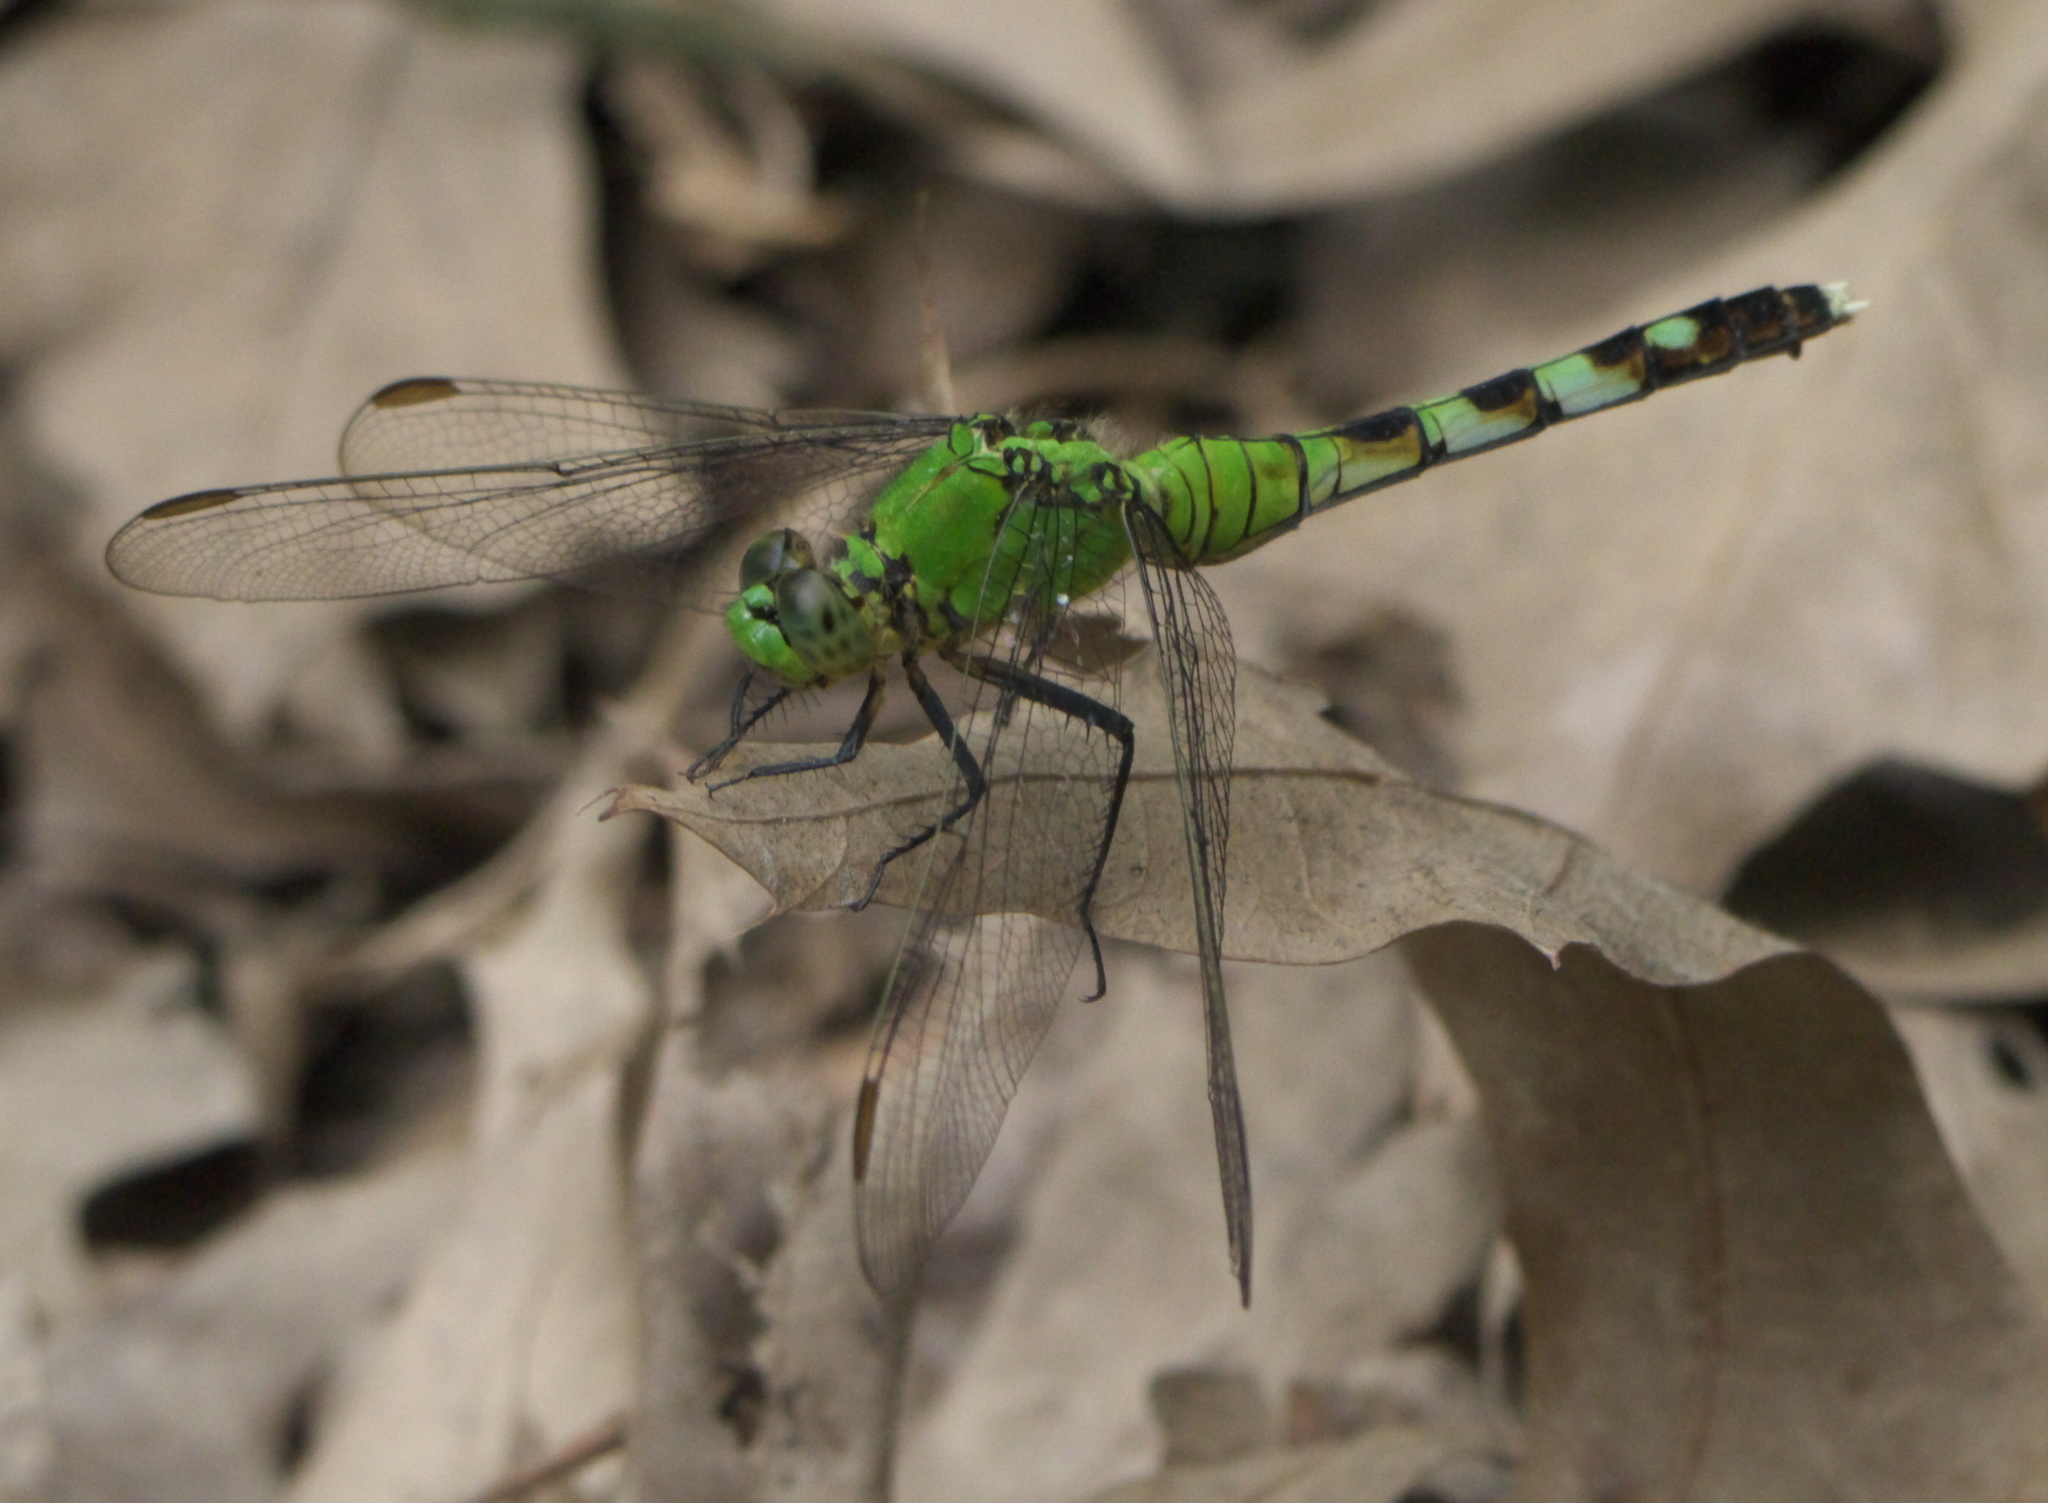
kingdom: Animalia
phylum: Arthropoda
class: Insecta
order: Odonata
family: Libellulidae
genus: Erythemis
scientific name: Erythemis simplicicollis
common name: Eastern pondhawk
